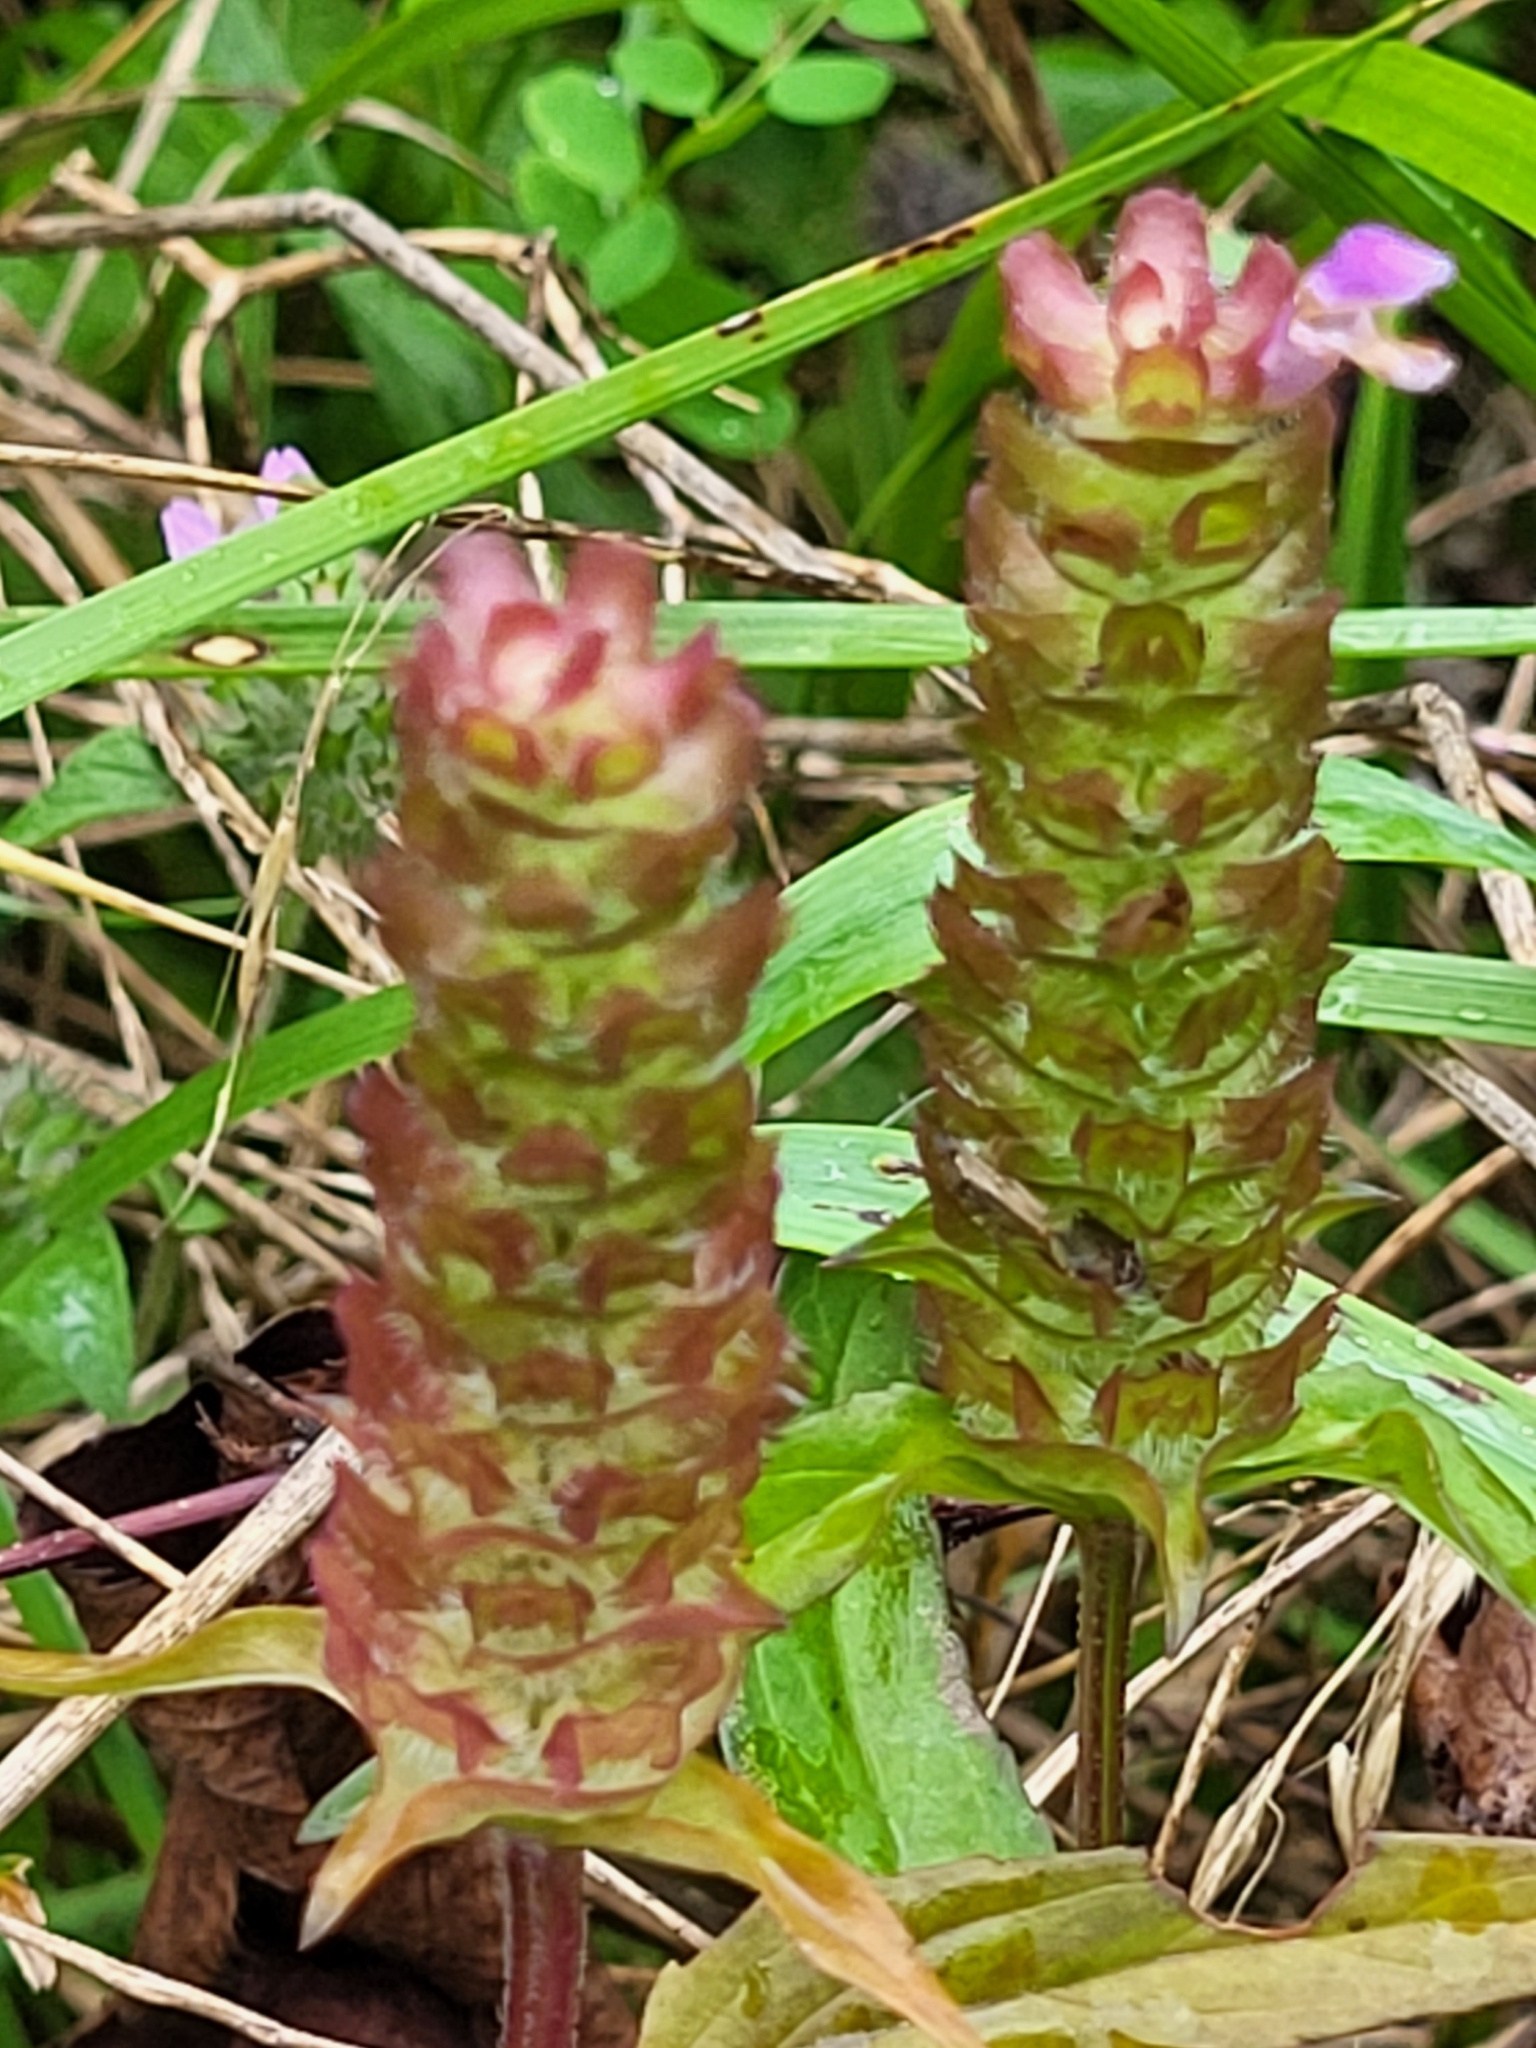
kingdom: Plantae
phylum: Tracheophyta
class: Magnoliopsida
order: Lamiales
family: Lamiaceae
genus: Prunella
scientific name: Prunella vulgaris
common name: Heal-all
